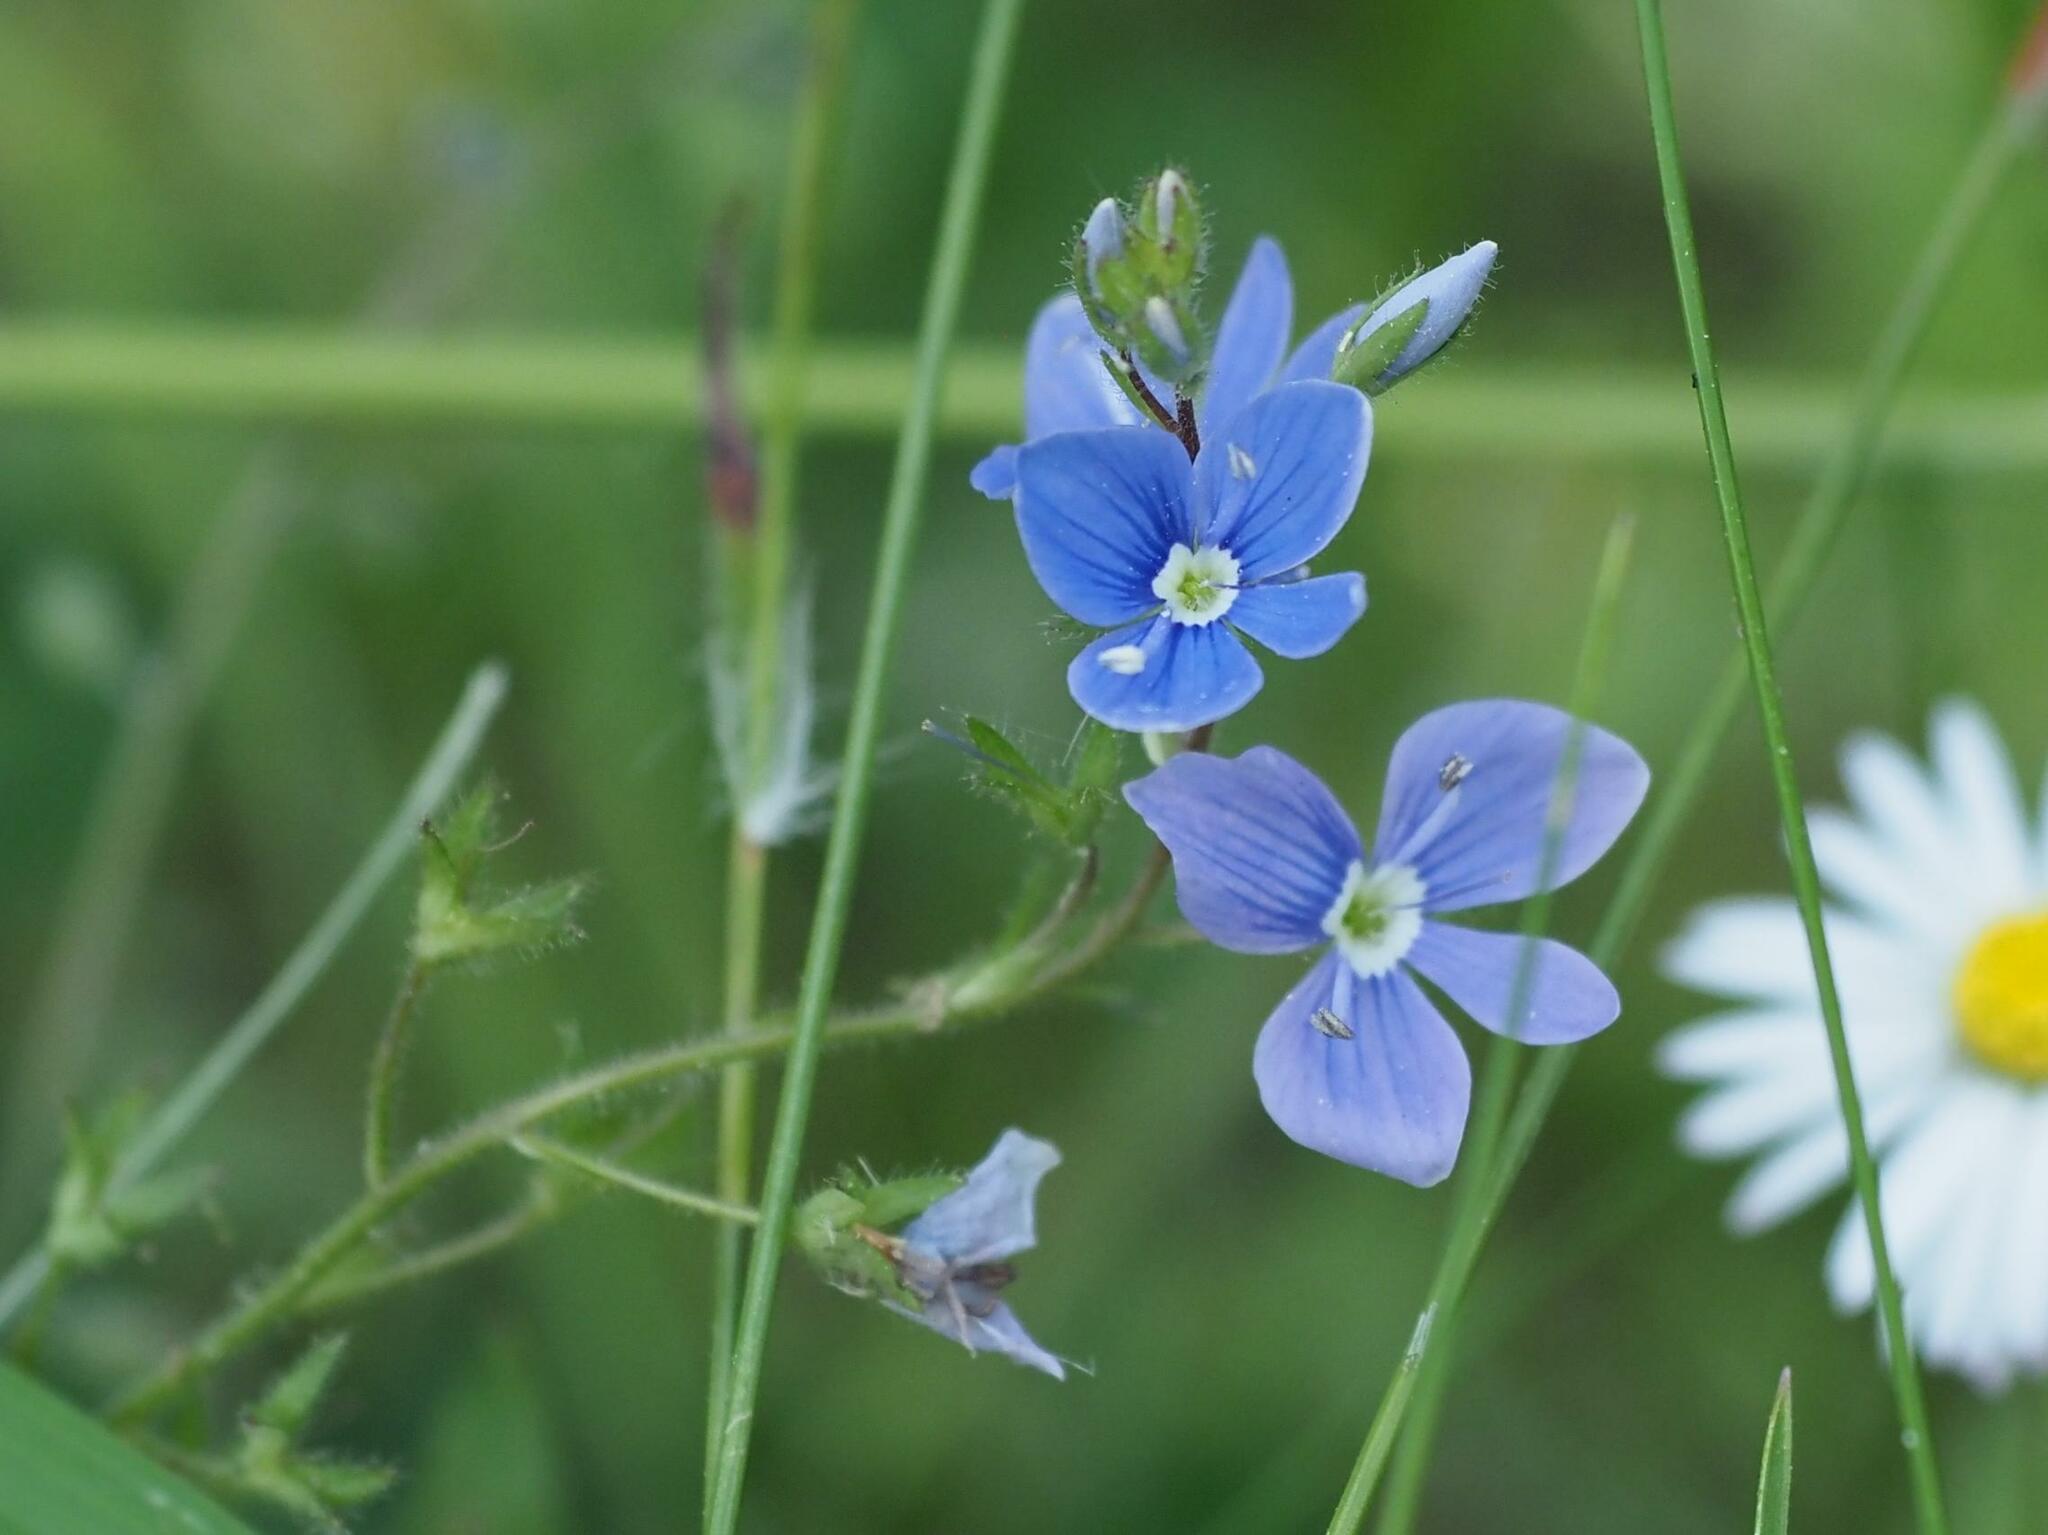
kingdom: Plantae
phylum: Tracheophyta
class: Magnoliopsida
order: Lamiales
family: Plantaginaceae
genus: Veronica
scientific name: Veronica chamaedrys
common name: Germander speedwell
